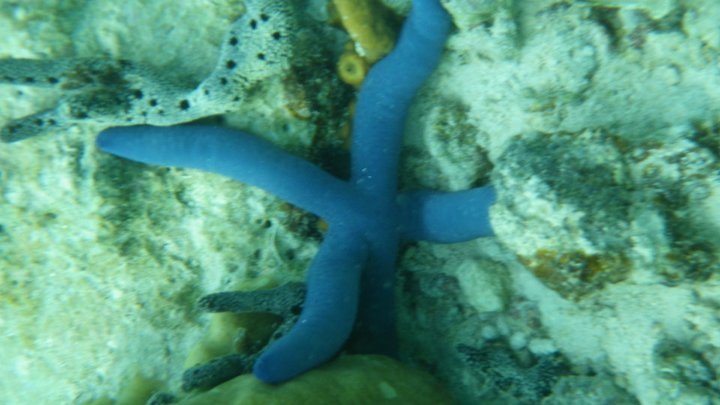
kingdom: Animalia
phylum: Echinodermata
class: Asteroidea
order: Valvatida
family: Ophidiasteridae
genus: Linckia
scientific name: Linckia laevigata
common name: Azure sea star
